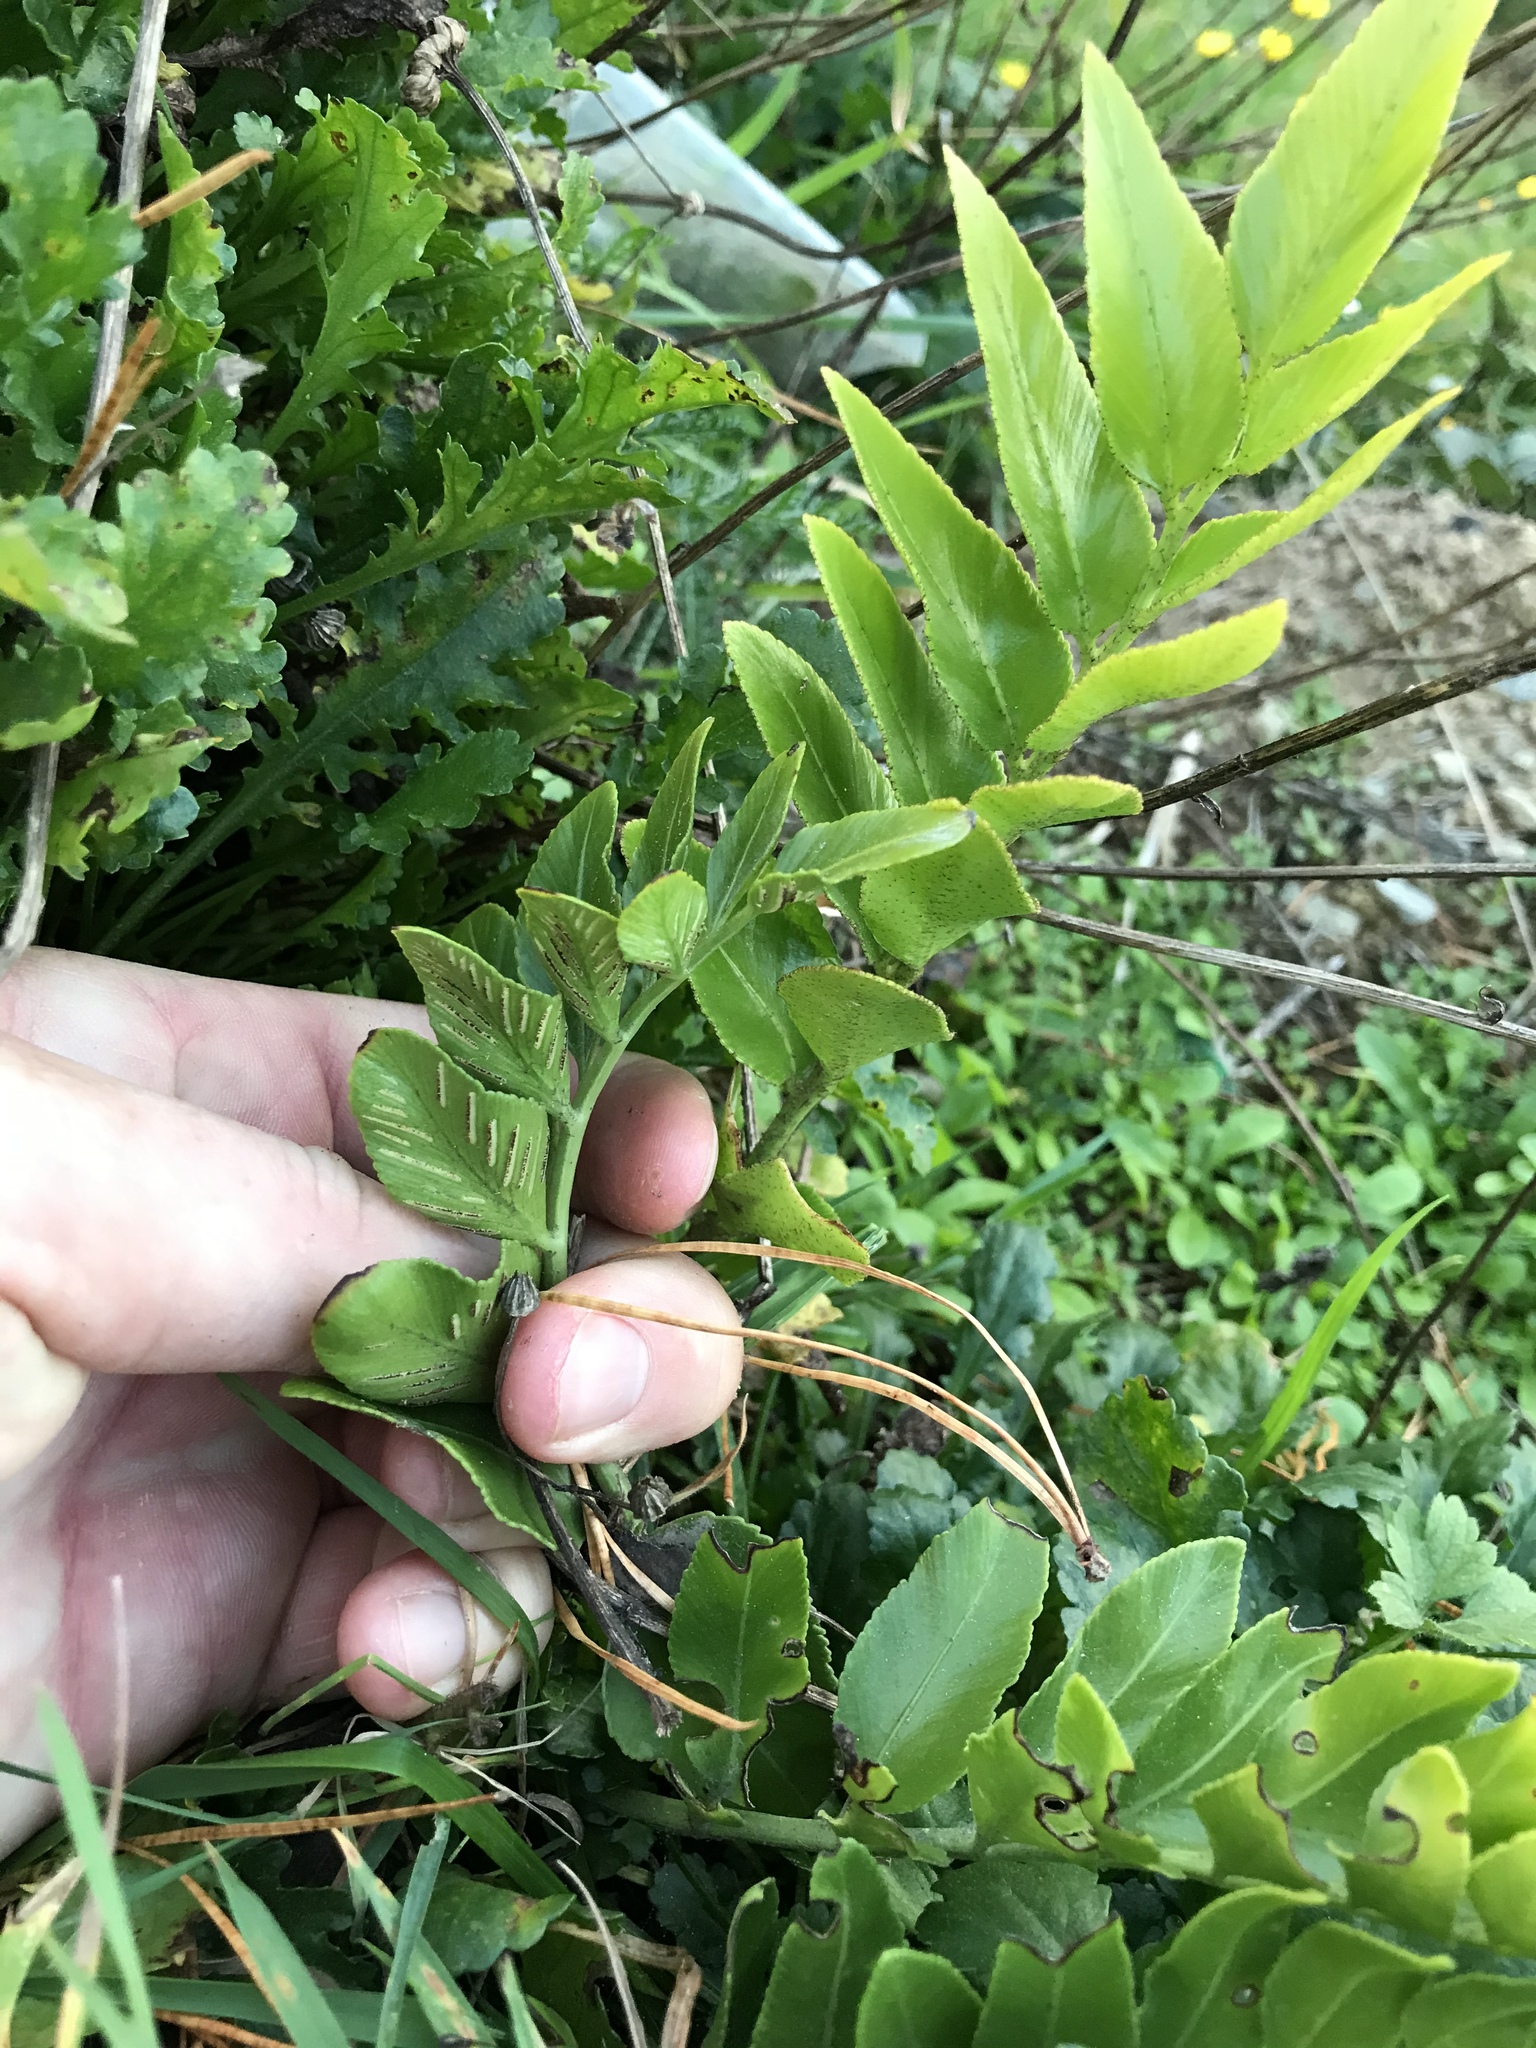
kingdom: Plantae
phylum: Tracheophyta
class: Polypodiopsida
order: Polypodiales
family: Aspleniaceae
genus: Asplenium
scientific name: Asplenium oblongifolium
